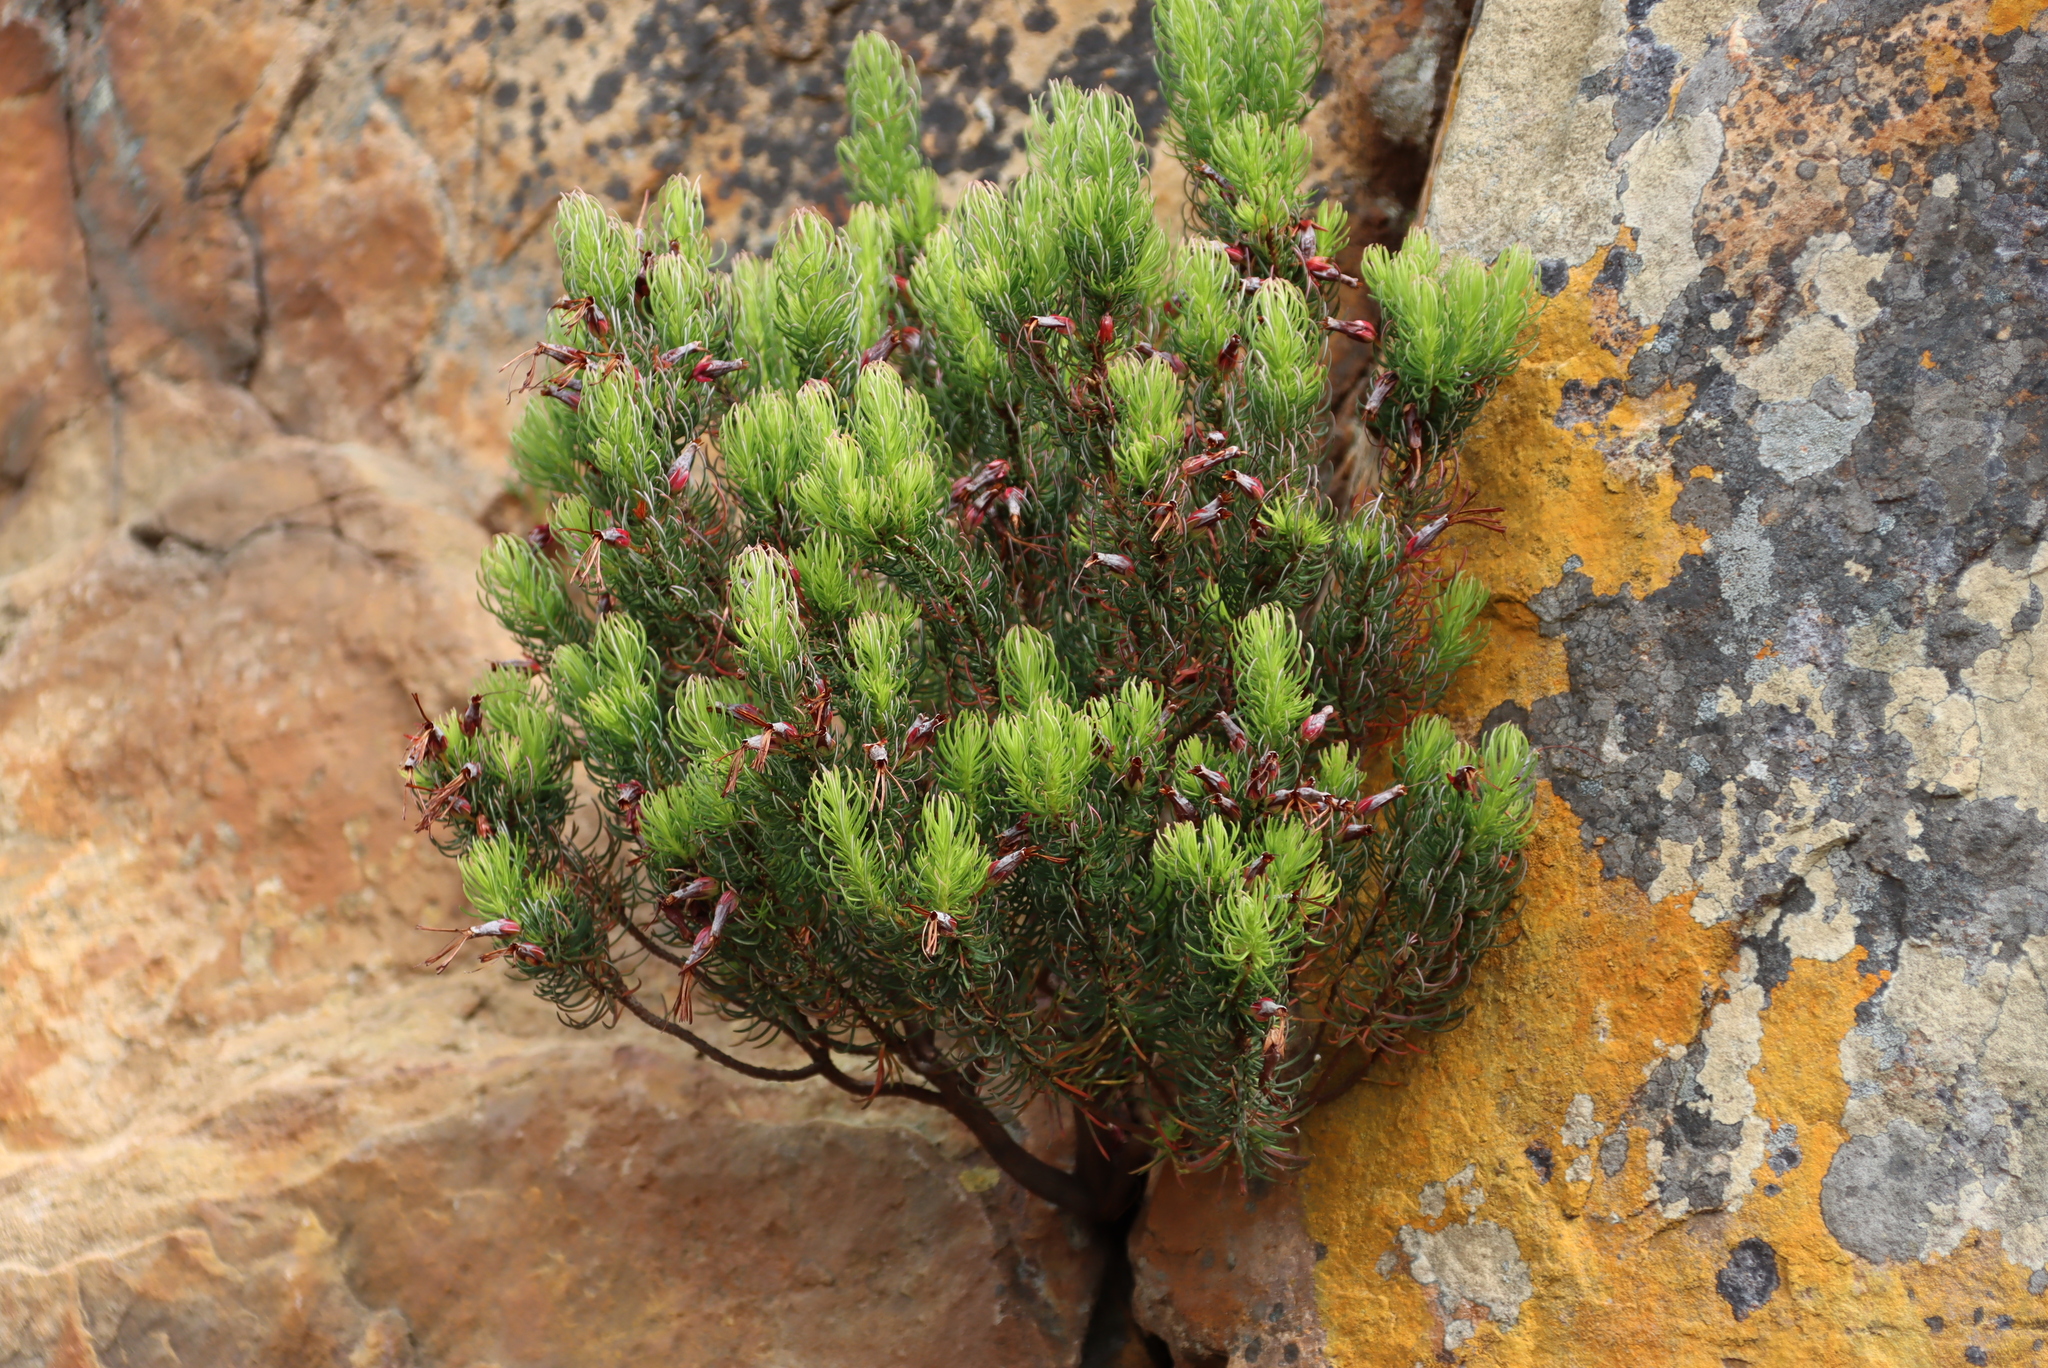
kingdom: Plantae
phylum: Tracheophyta
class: Magnoliopsida
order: Ericales
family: Ericaceae
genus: Erica
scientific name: Erica plukenetii
